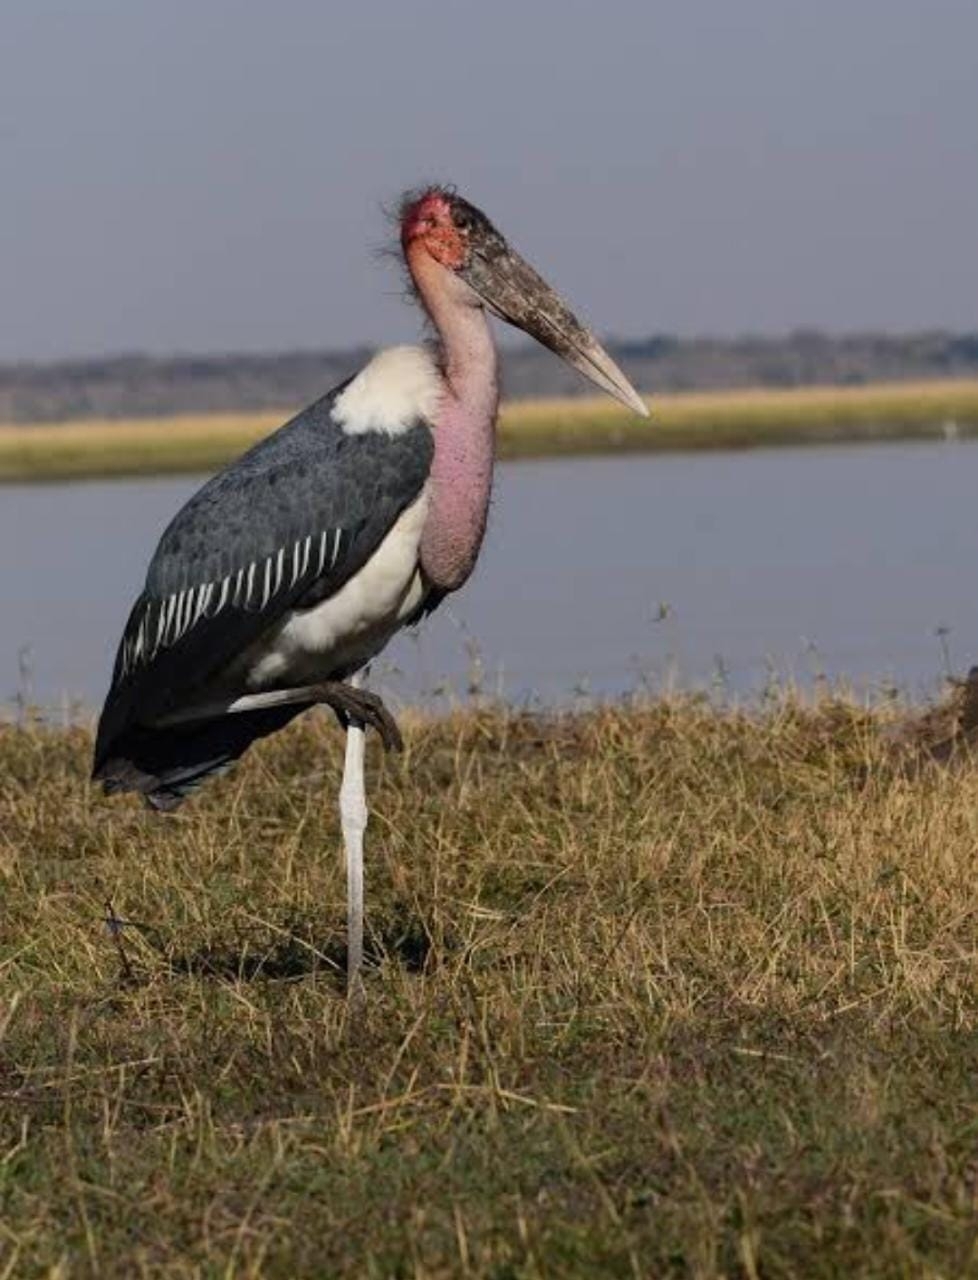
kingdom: Animalia
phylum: Chordata
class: Aves
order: Ciconiiformes
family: Ciconiidae
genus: Leptoptilos
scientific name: Leptoptilos crumenifer
